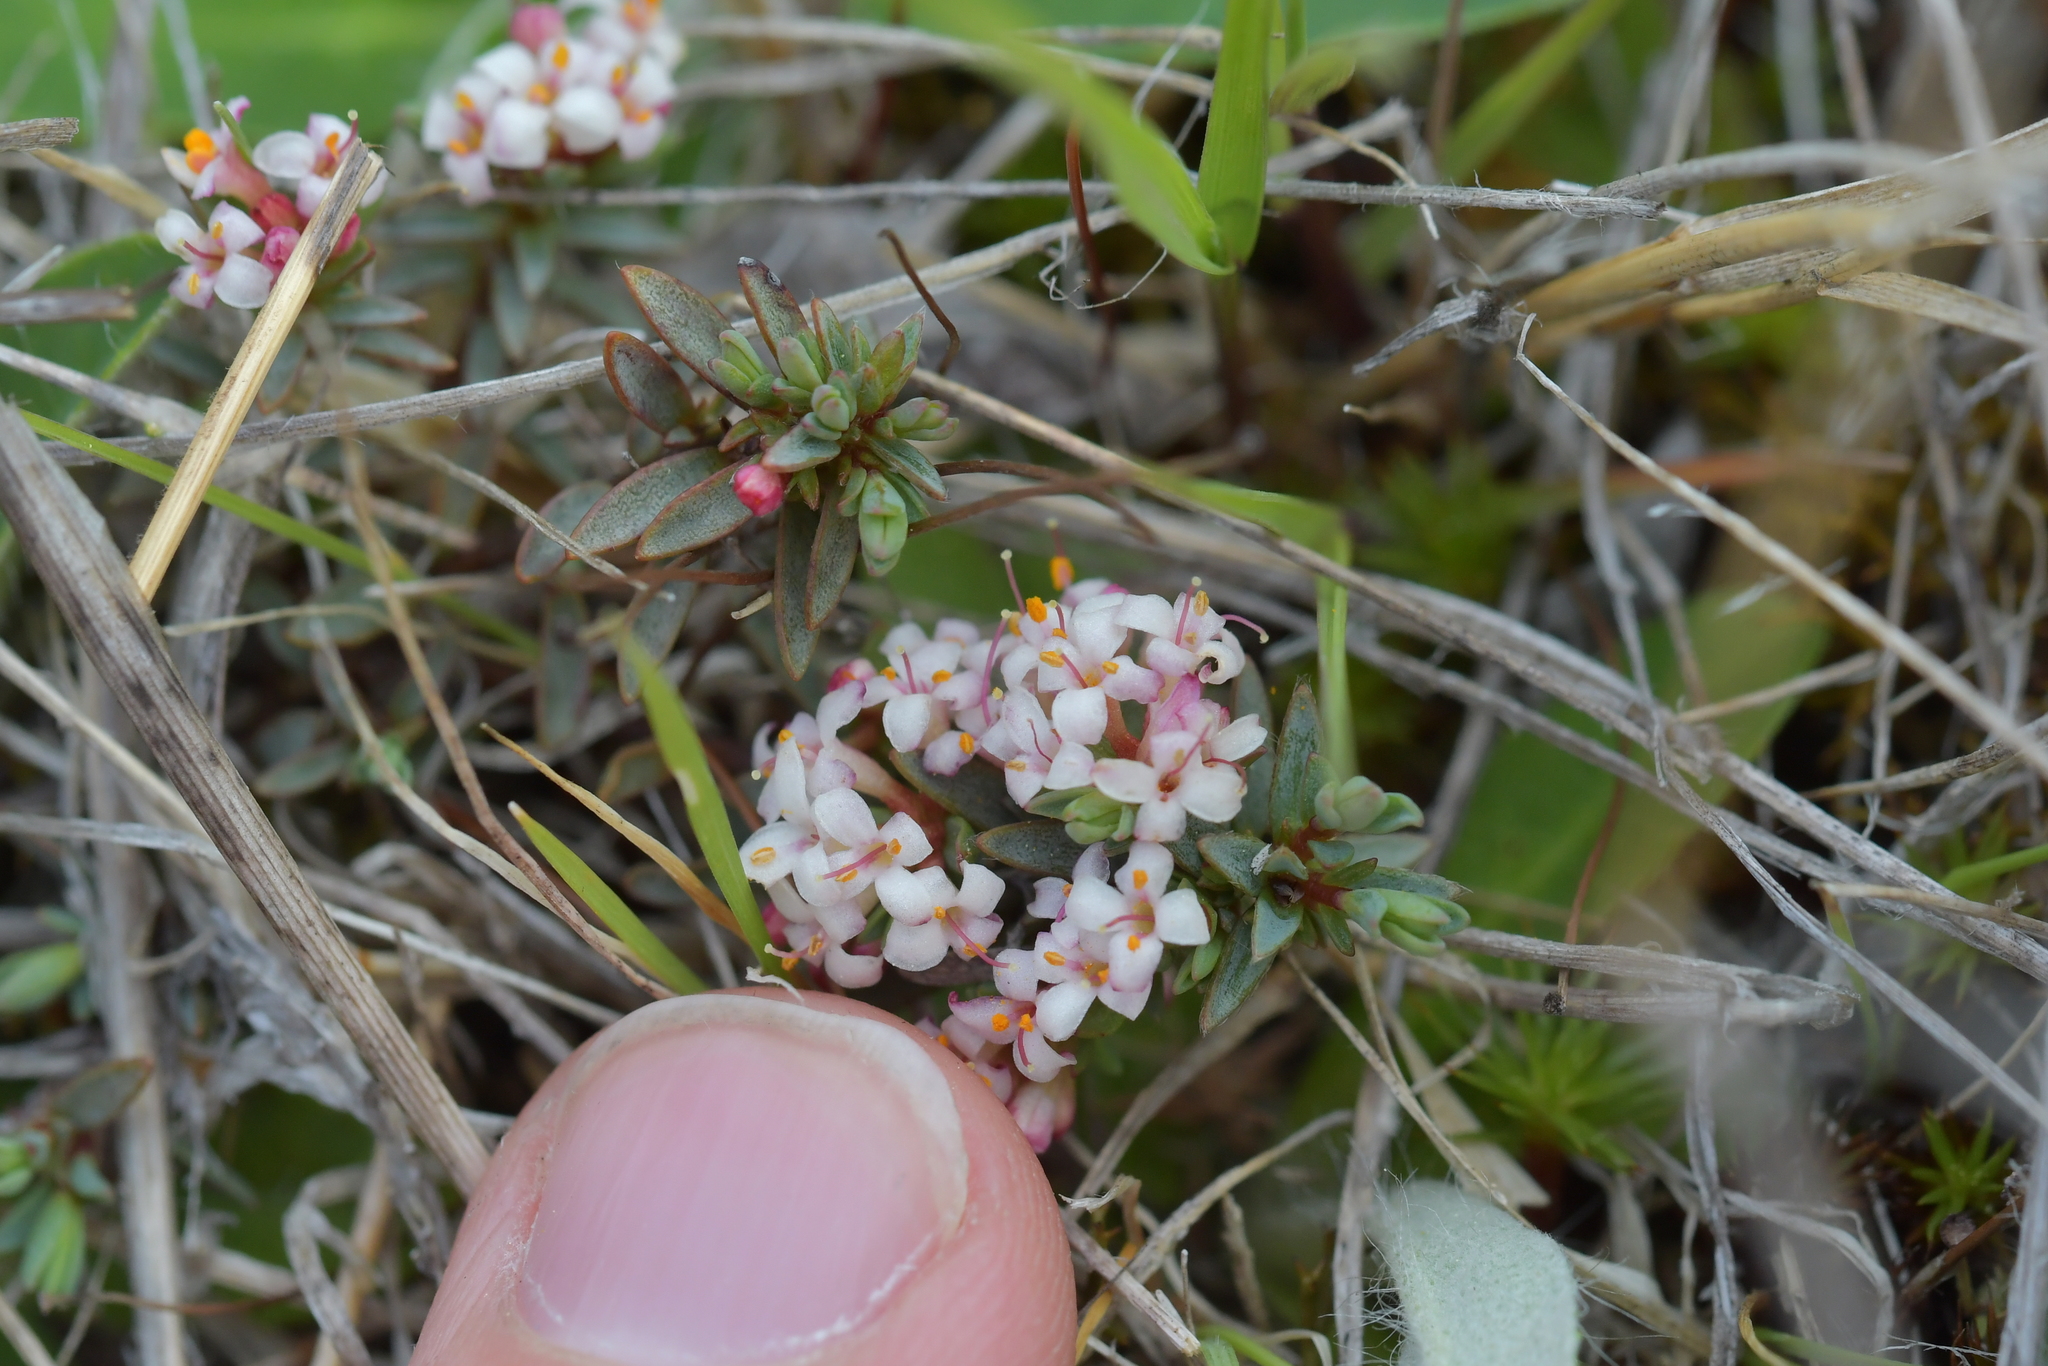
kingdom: Plantae
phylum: Tracheophyta
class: Magnoliopsida
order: Malvales
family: Thymelaeaceae
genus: Pimelea
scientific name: Pimelea notia
